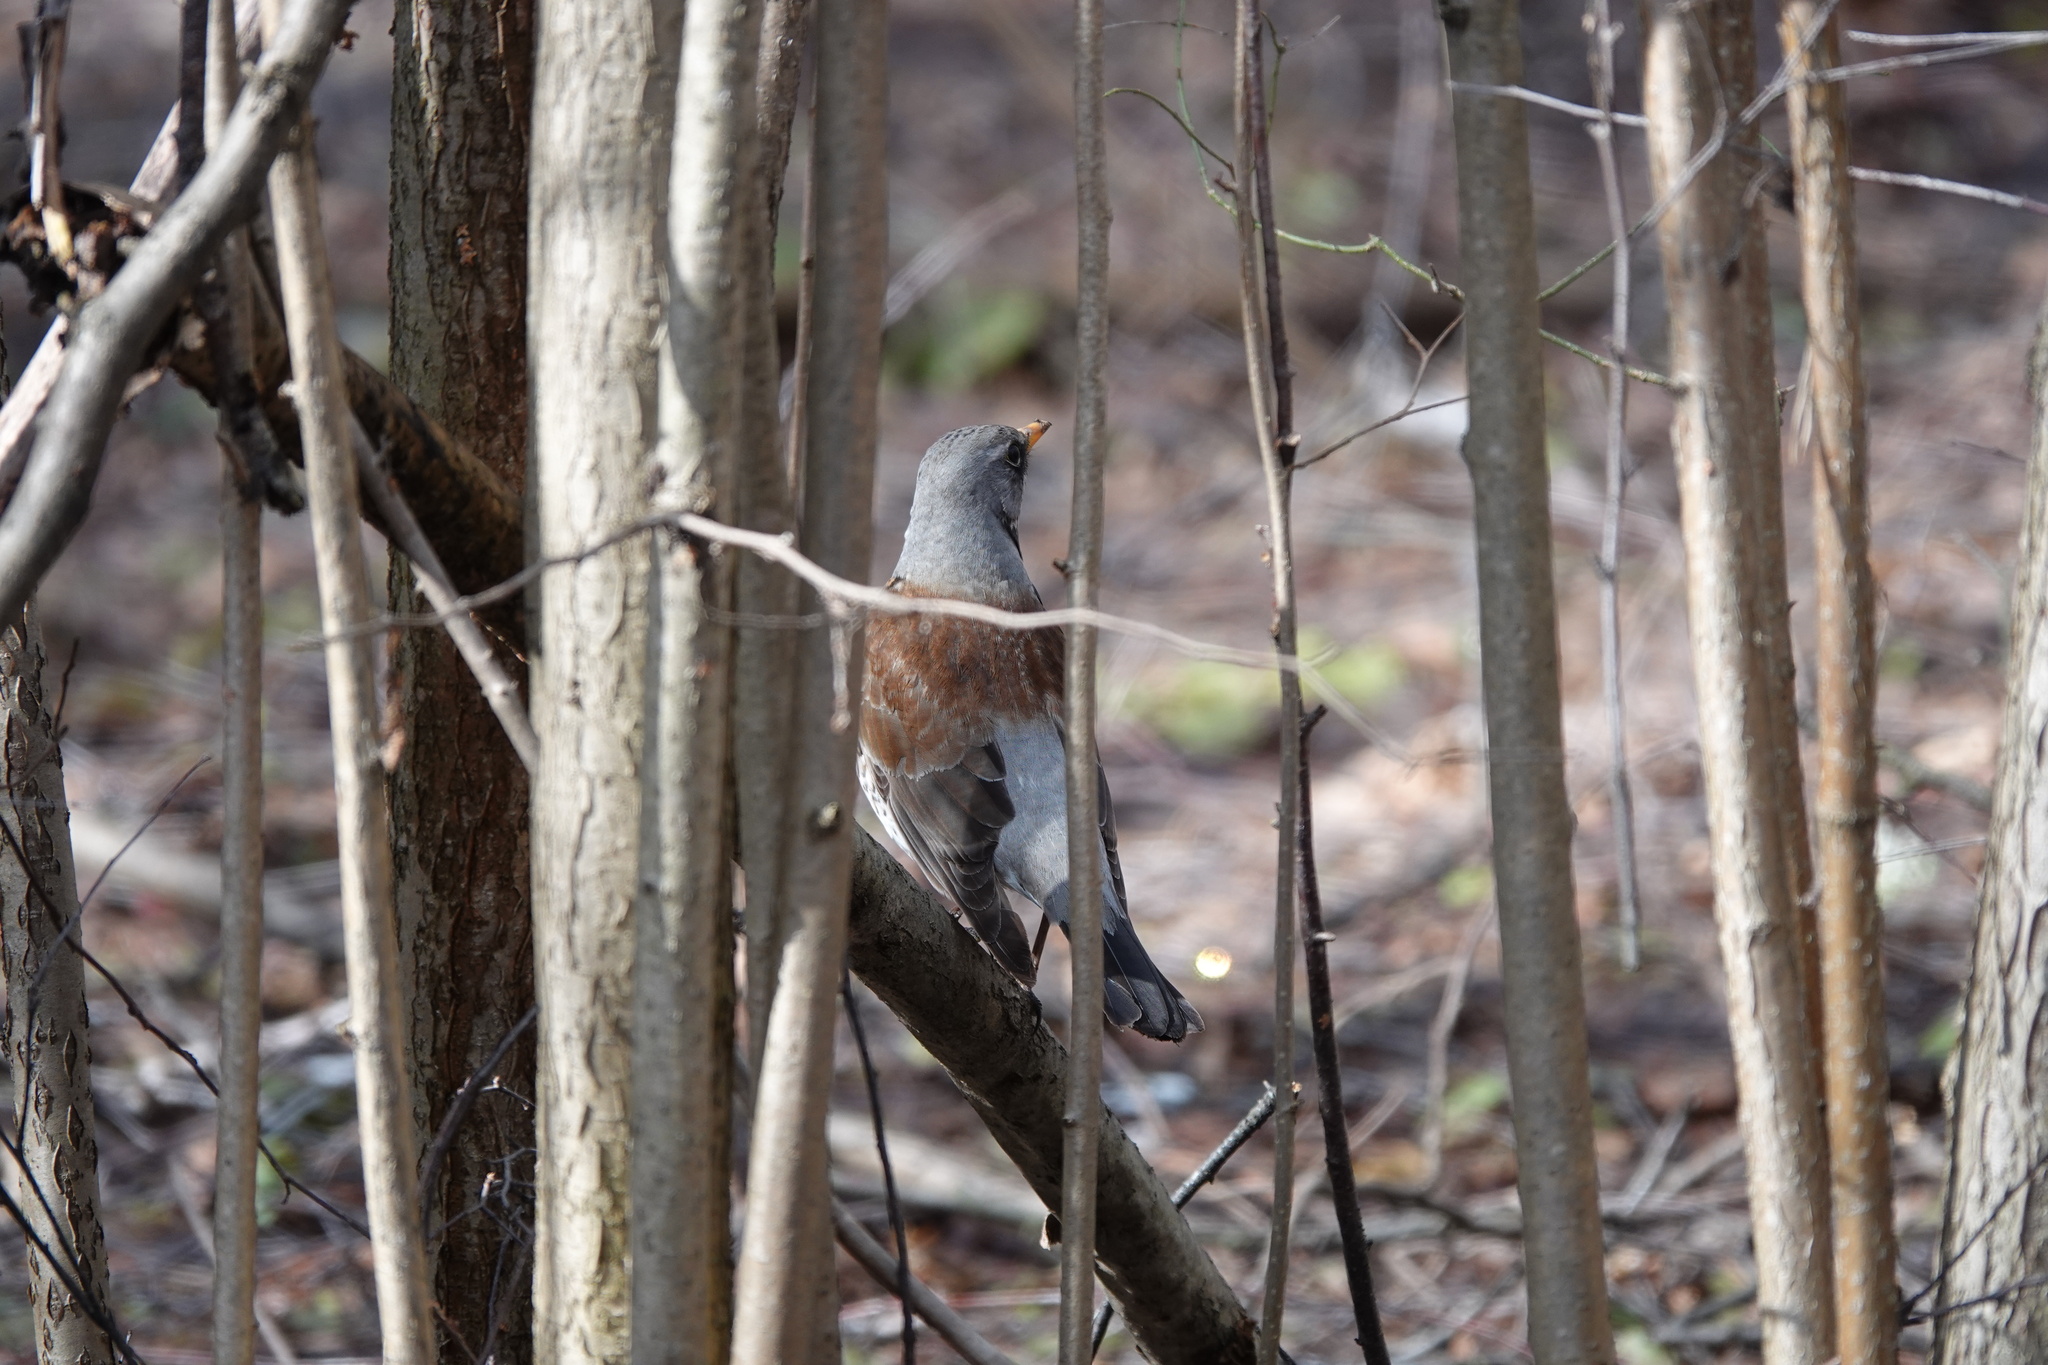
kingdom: Animalia
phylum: Chordata
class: Aves
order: Passeriformes
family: Turdidae
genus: Turdus
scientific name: Turdus pilaris
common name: Fieldfare
